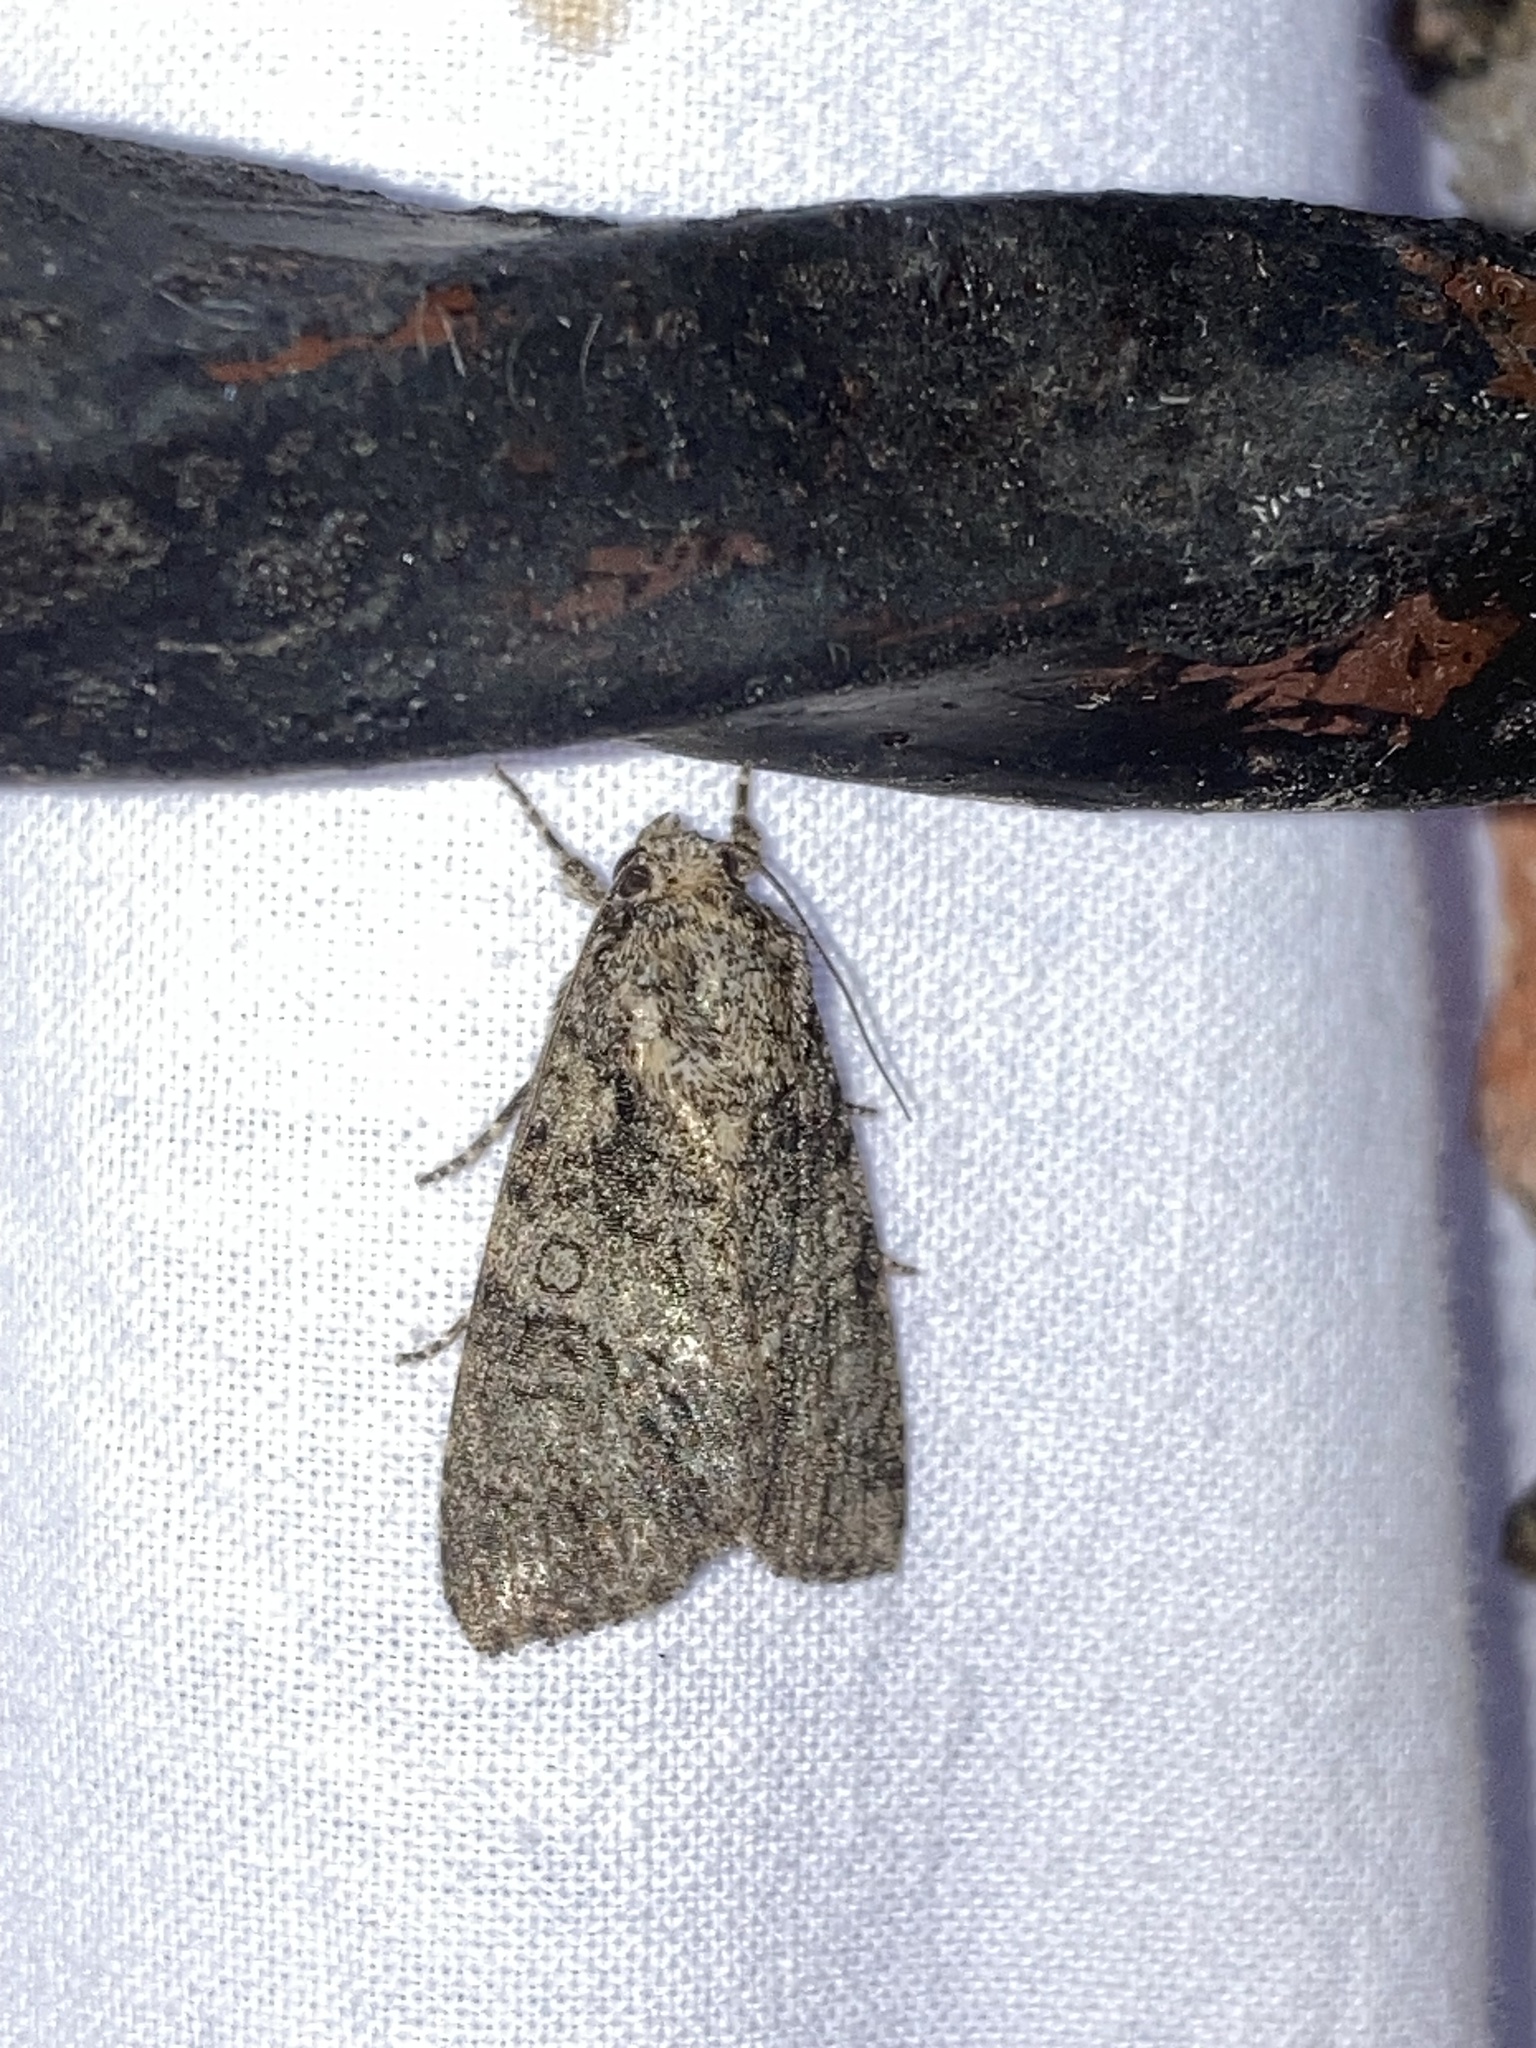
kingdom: Animalia
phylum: Arthropoda
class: Insecta
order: Lepidoptera
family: Noctuidae
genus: Acronicta
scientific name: Acronicta rumicis
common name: Knot grass
